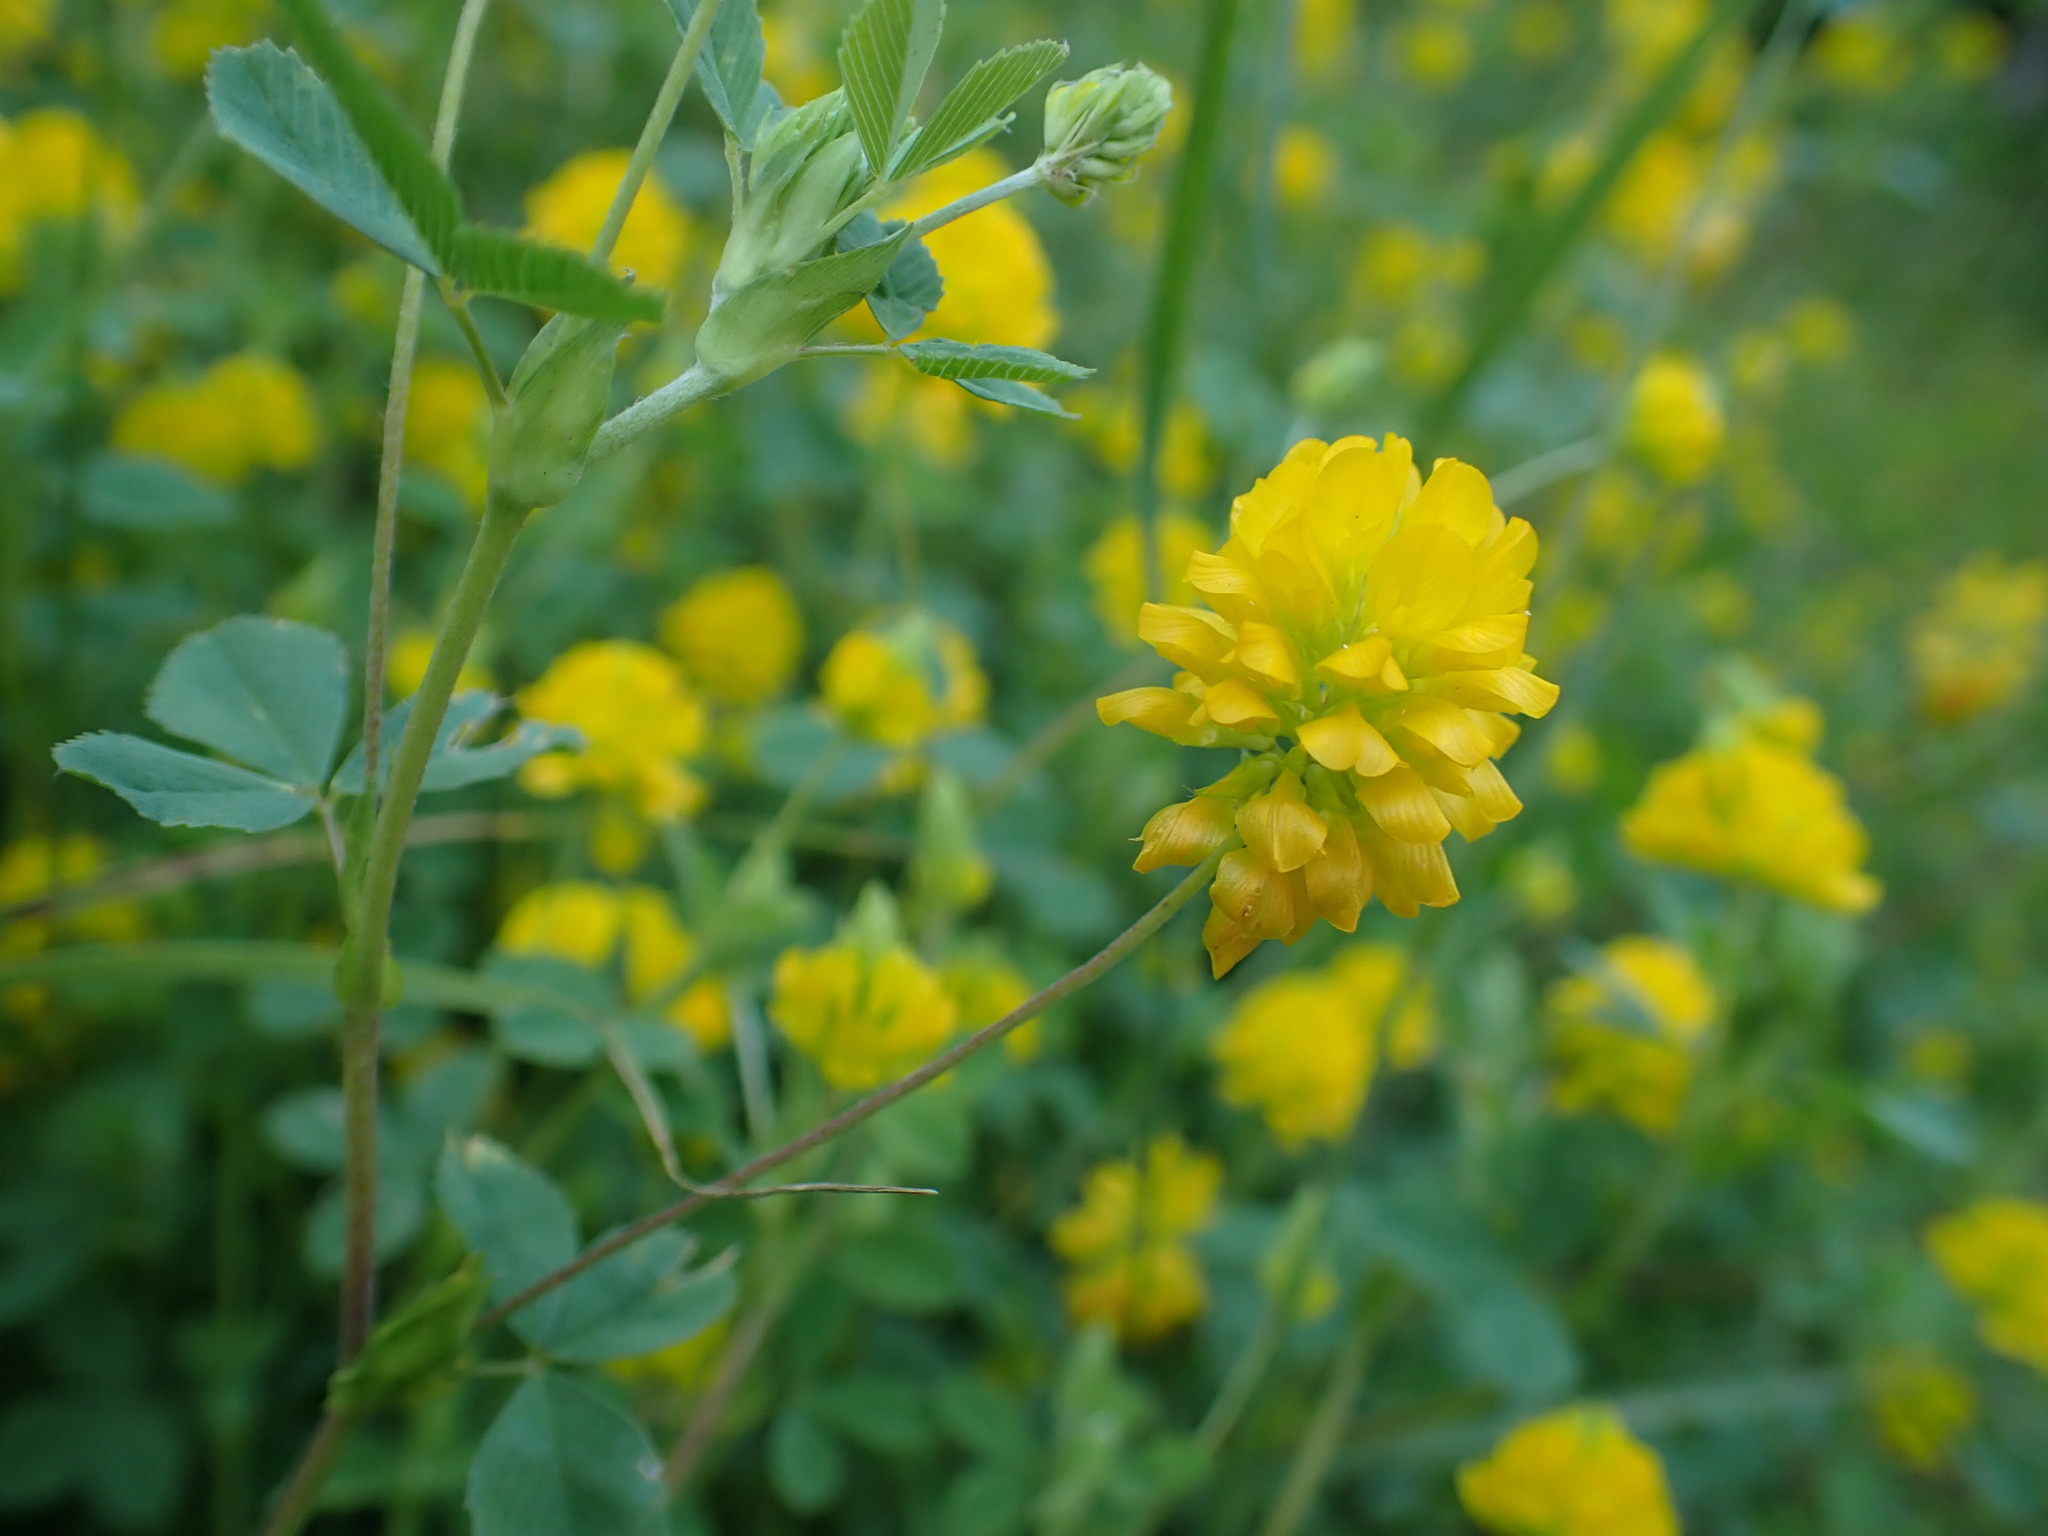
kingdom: Plantae
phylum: Tracheophyta
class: Magnoliopsida
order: Fabales
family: Fabaceae
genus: Trifolium
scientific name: Trifolium velenovskyi
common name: Velenovsky's clover
